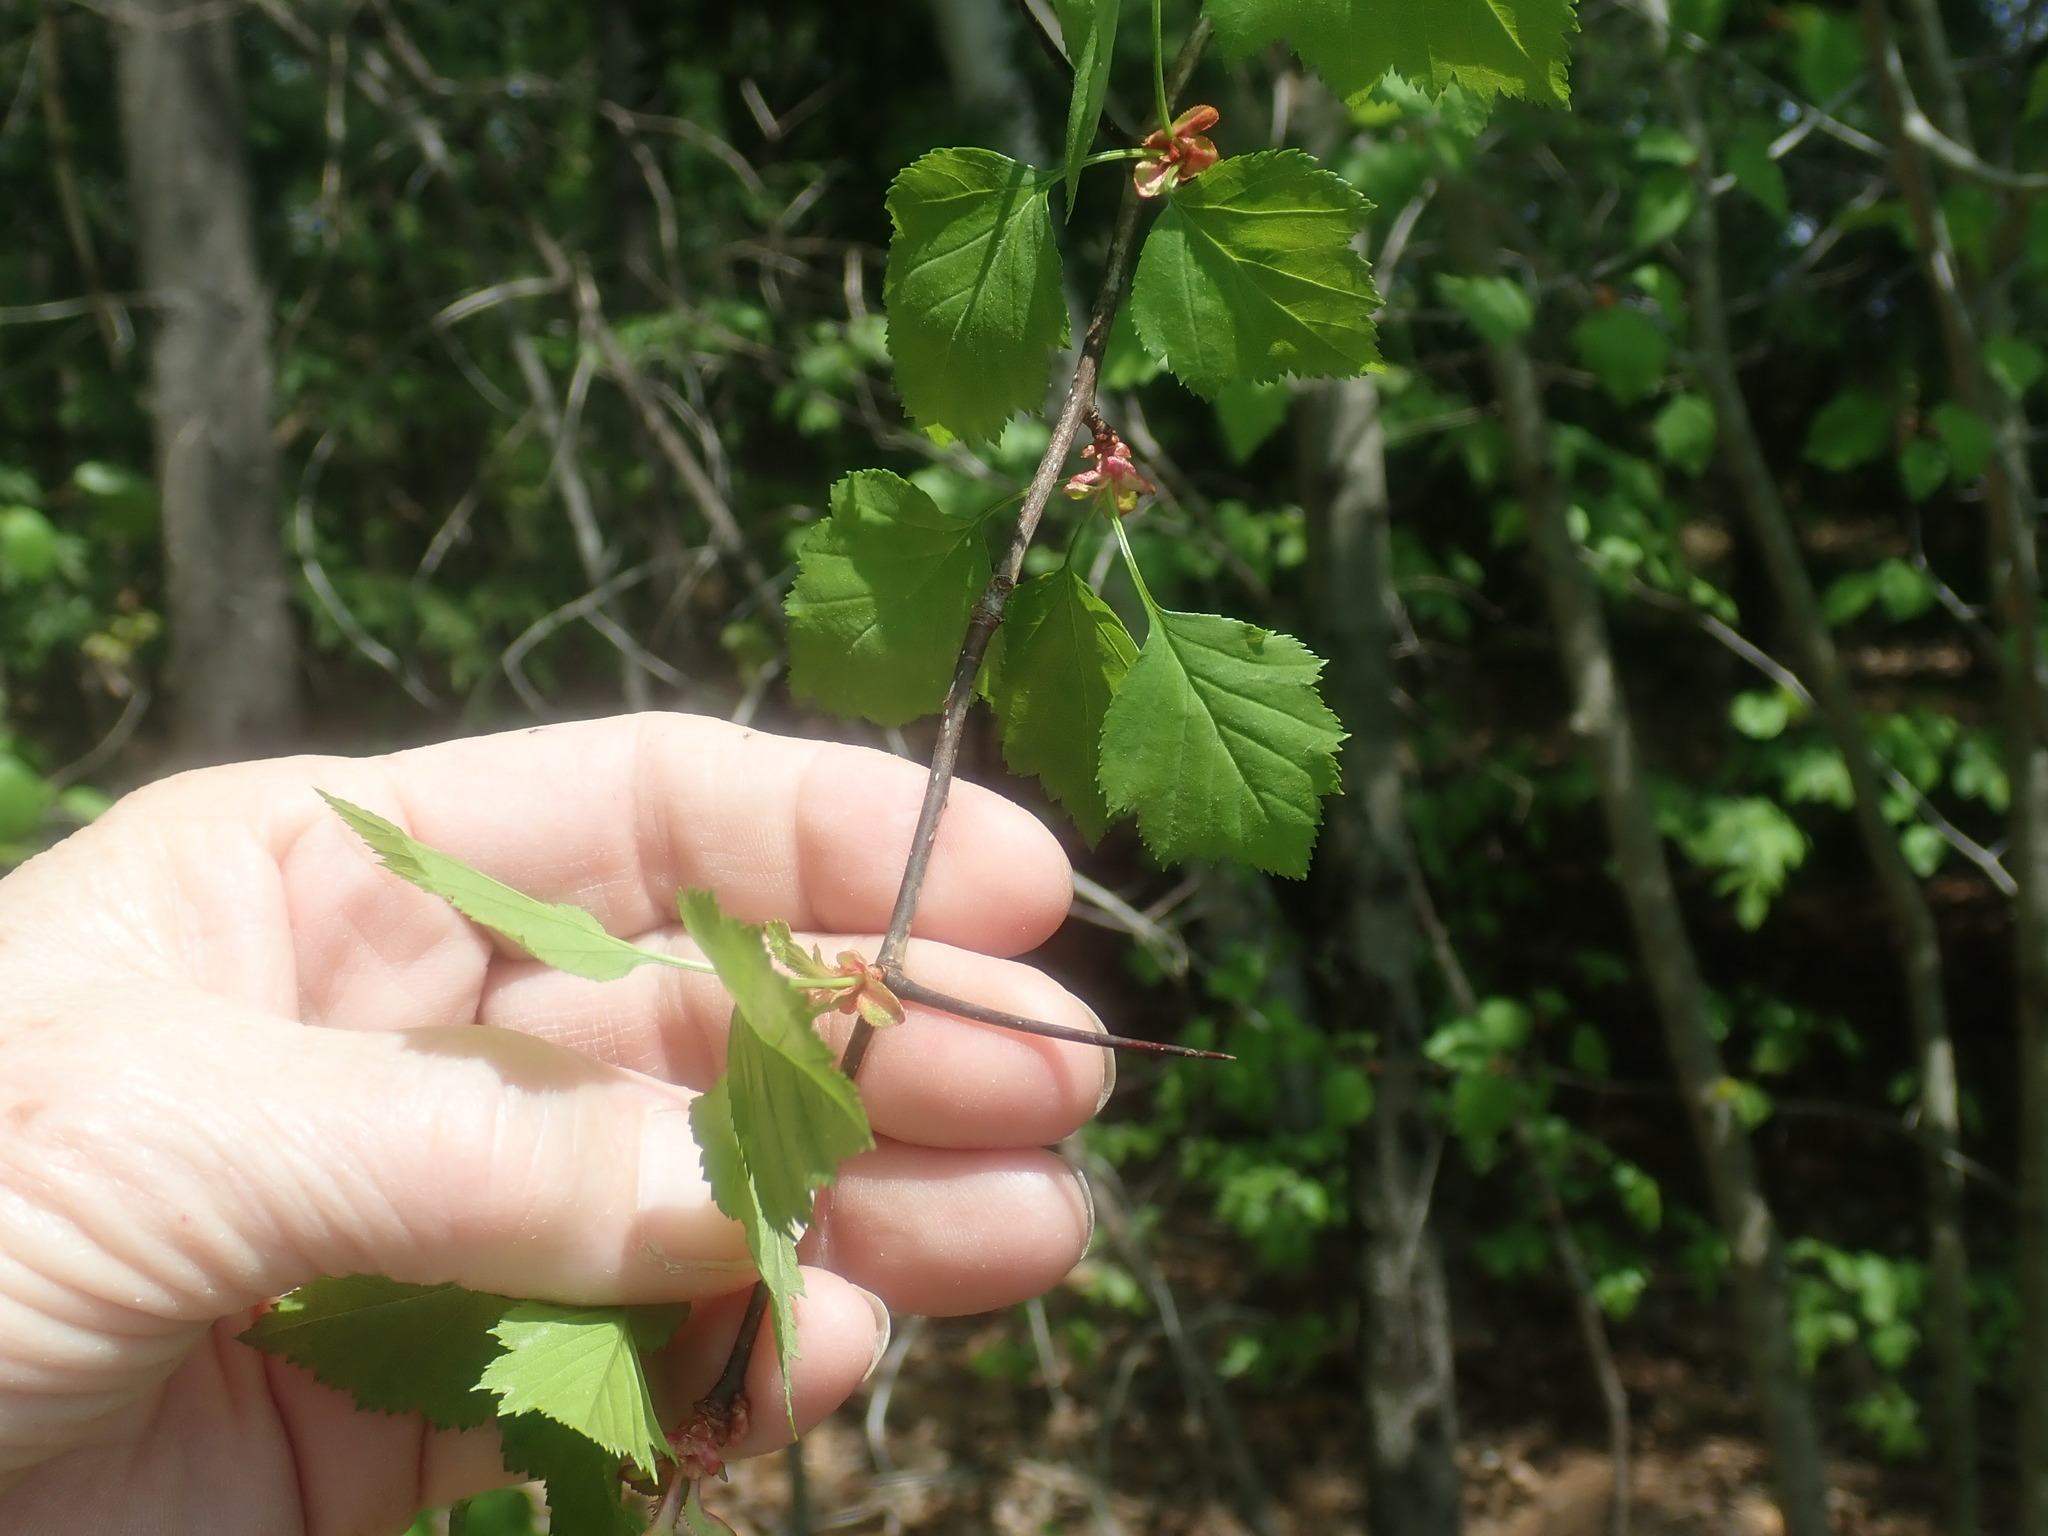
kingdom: Plantae
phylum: Tracheophyta
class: Magnoliopsida
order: Rosales
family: Rosaceae
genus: Crataegus
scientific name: Crataegus
